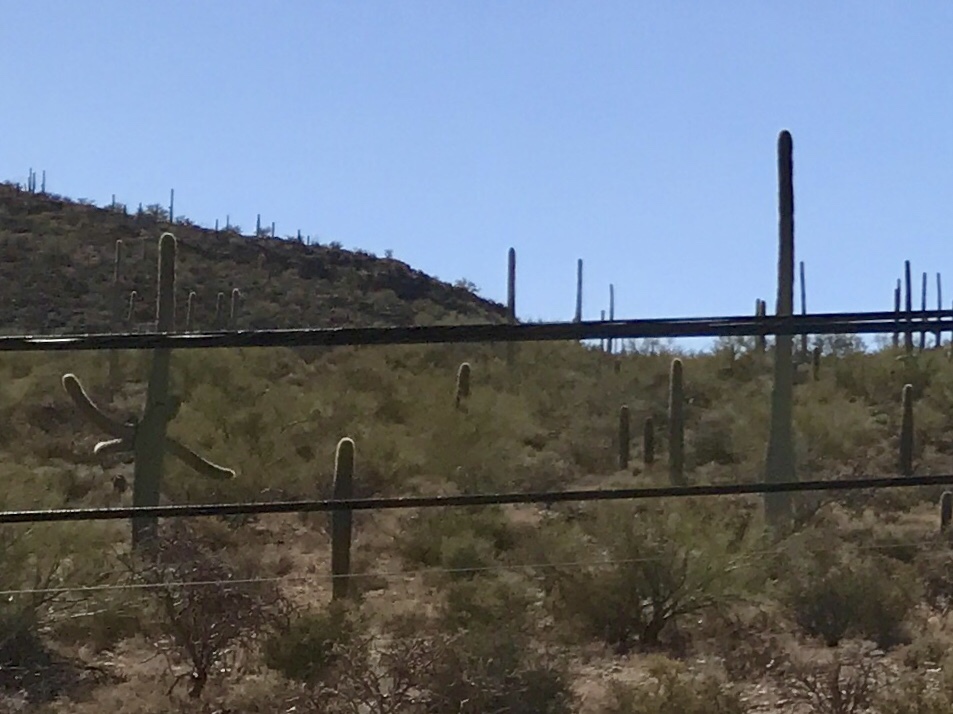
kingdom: Plantae
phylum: Tracheophyta
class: Magnoliopsida
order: Caryophyllales
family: Cactaceae
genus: Carnegiea
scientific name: Carnegiea gigantea
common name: Saguaro
